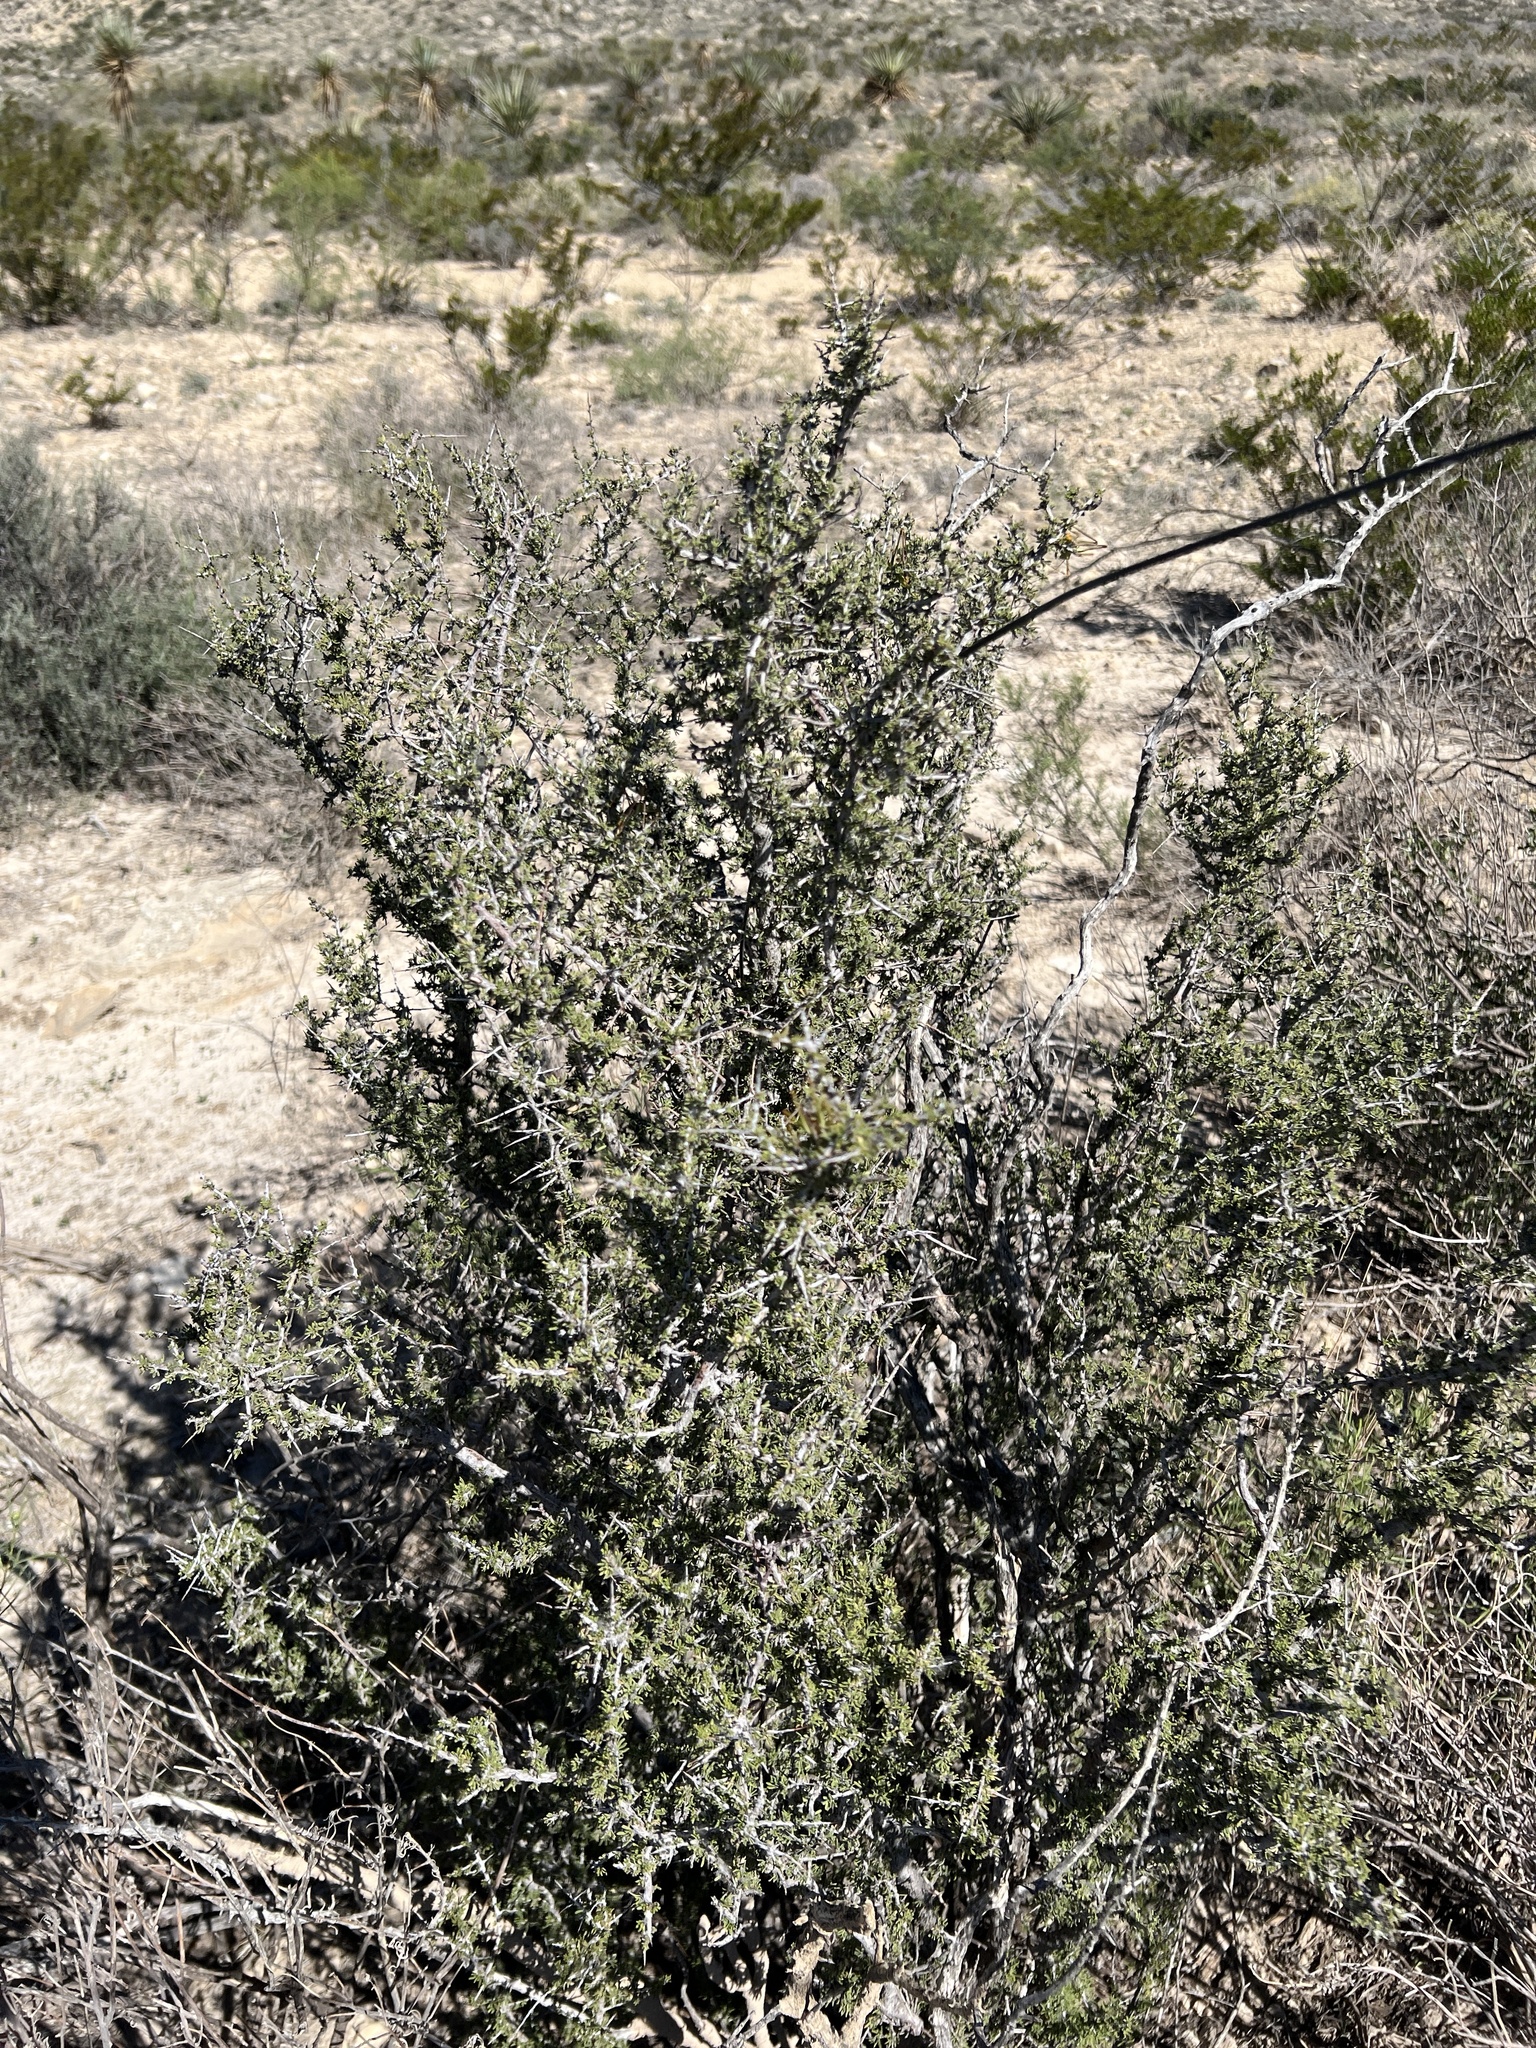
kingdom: Plantae
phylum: Tracheophyta
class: Magnoliopsida
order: Rosales
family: Rhamnaceae
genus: Condalia
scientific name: Condalia ericoides
